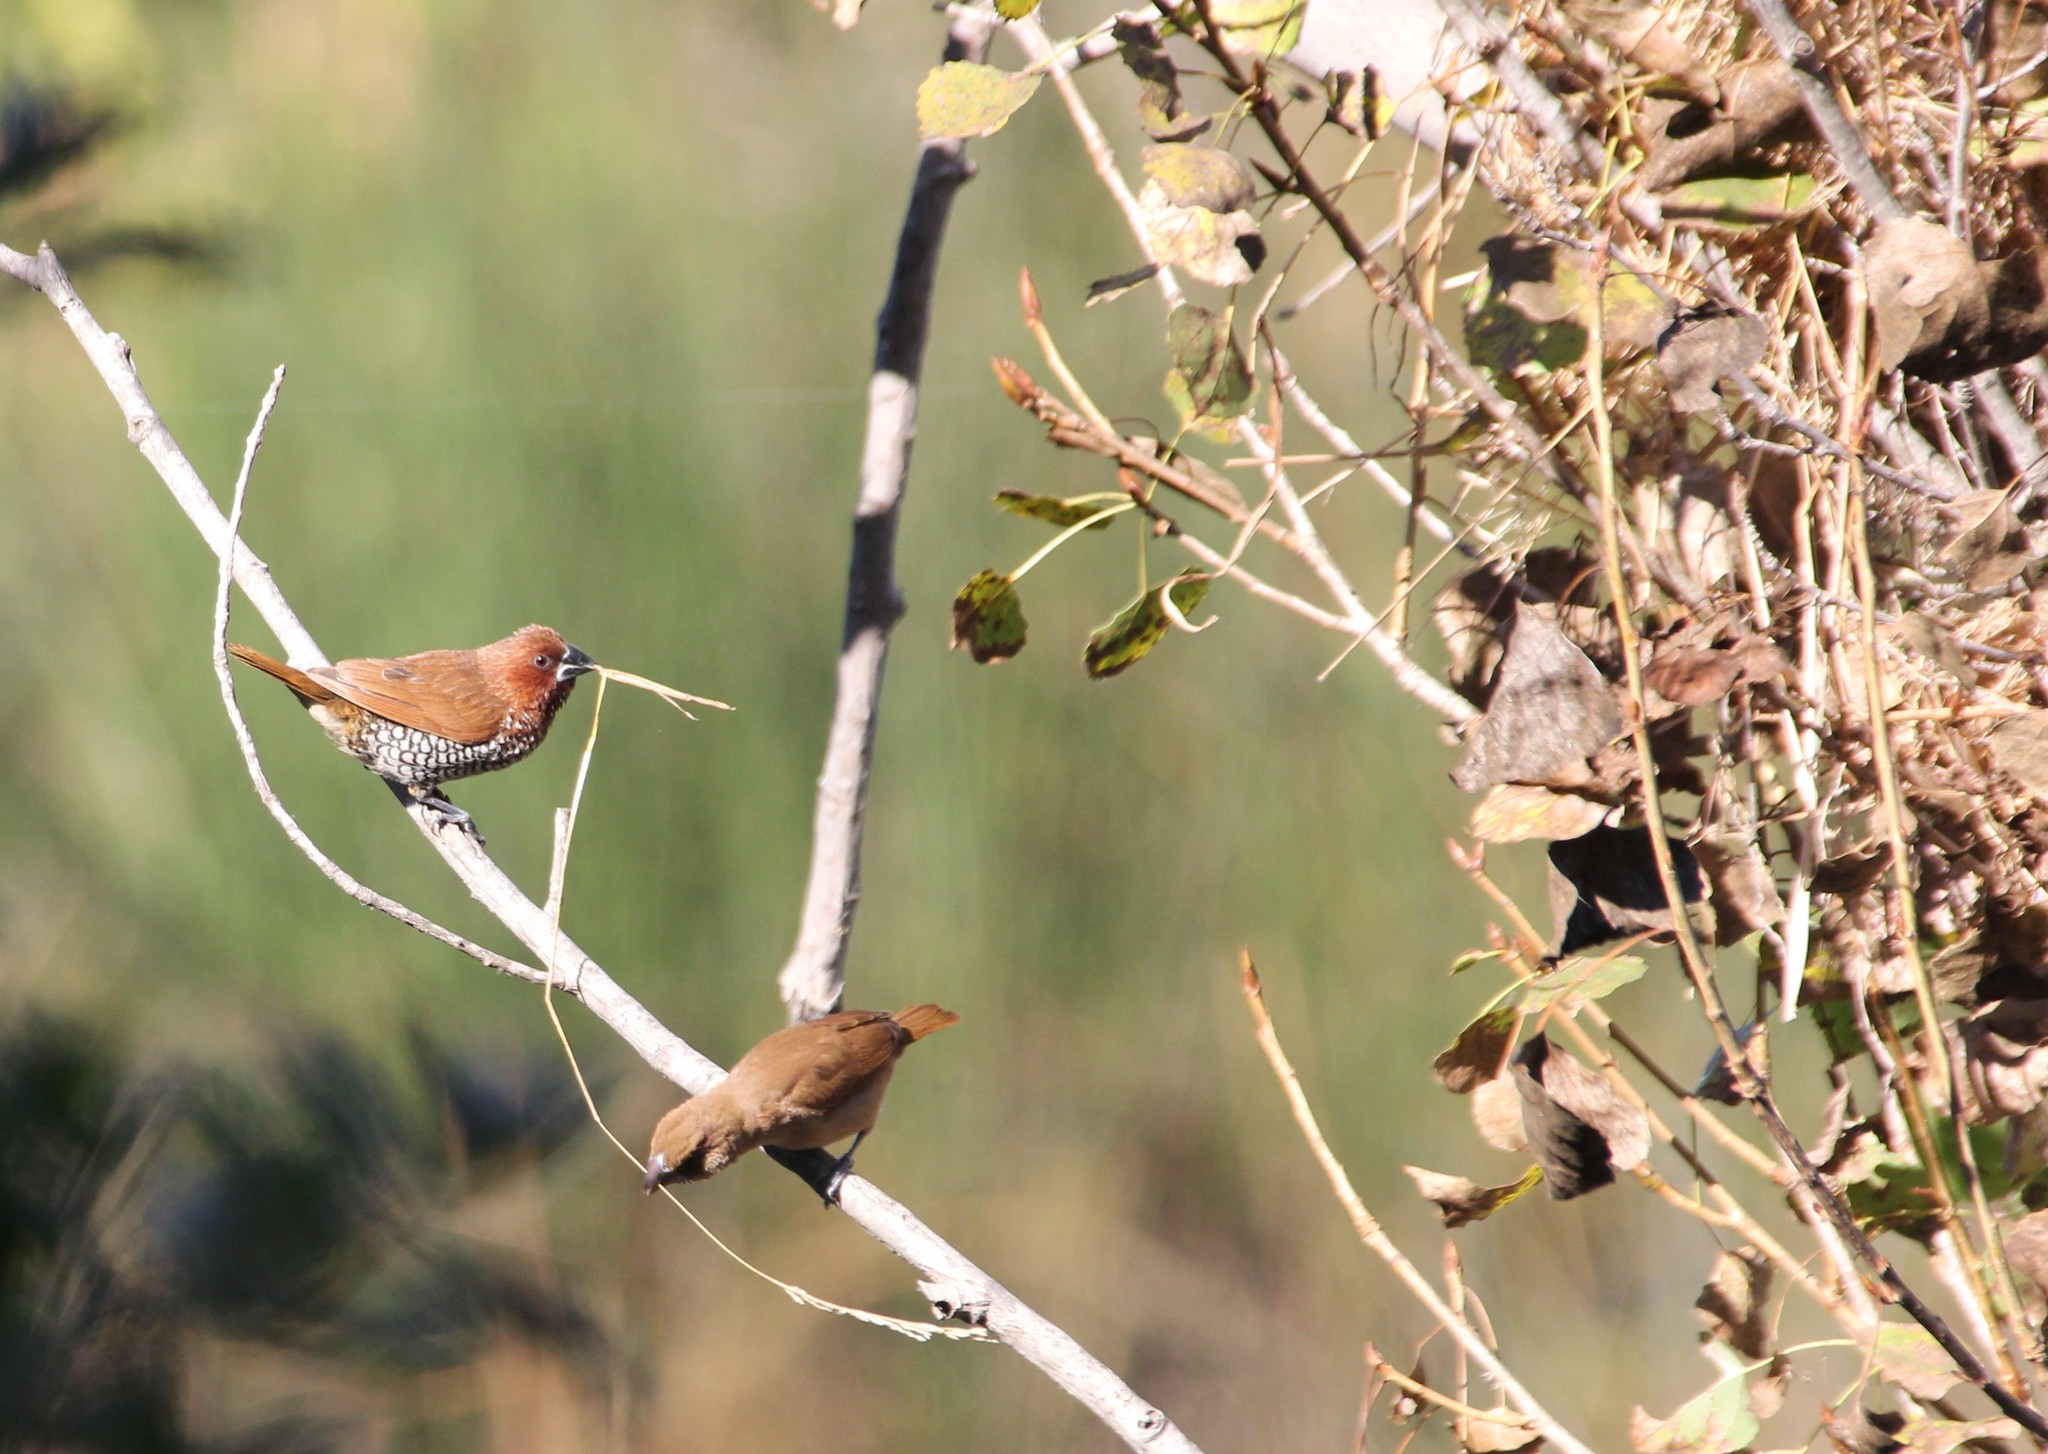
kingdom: Animalia
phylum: Chordata
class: Aves
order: Passeriformes
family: Estrildidae
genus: Lonchura
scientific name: Lonchura punctulata
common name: Scaly-breasted munia
